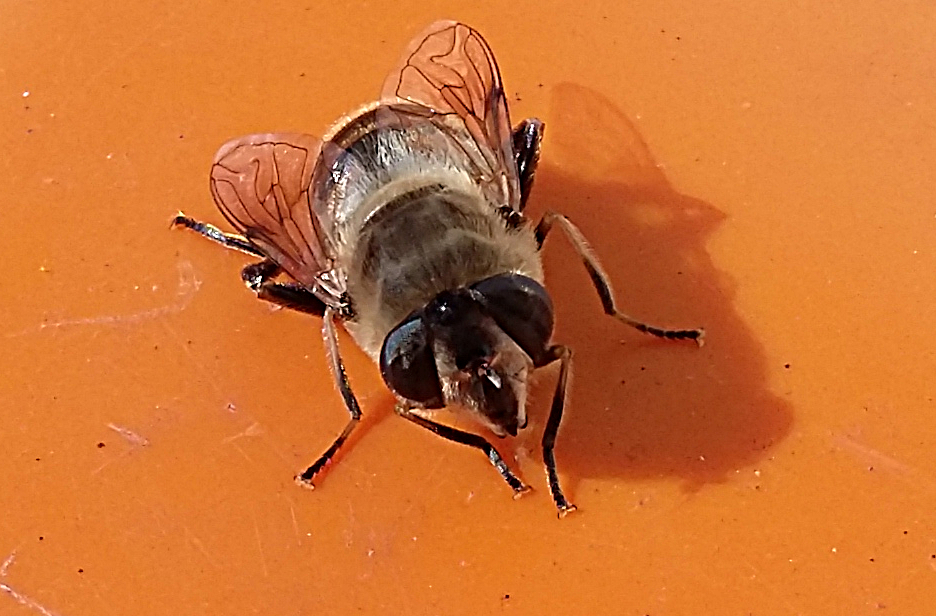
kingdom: Animalia
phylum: Arthropoda
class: Insecta
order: Diptera
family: Syrphidae
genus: Eristalis
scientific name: Eristalis tenax
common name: Drone fly
